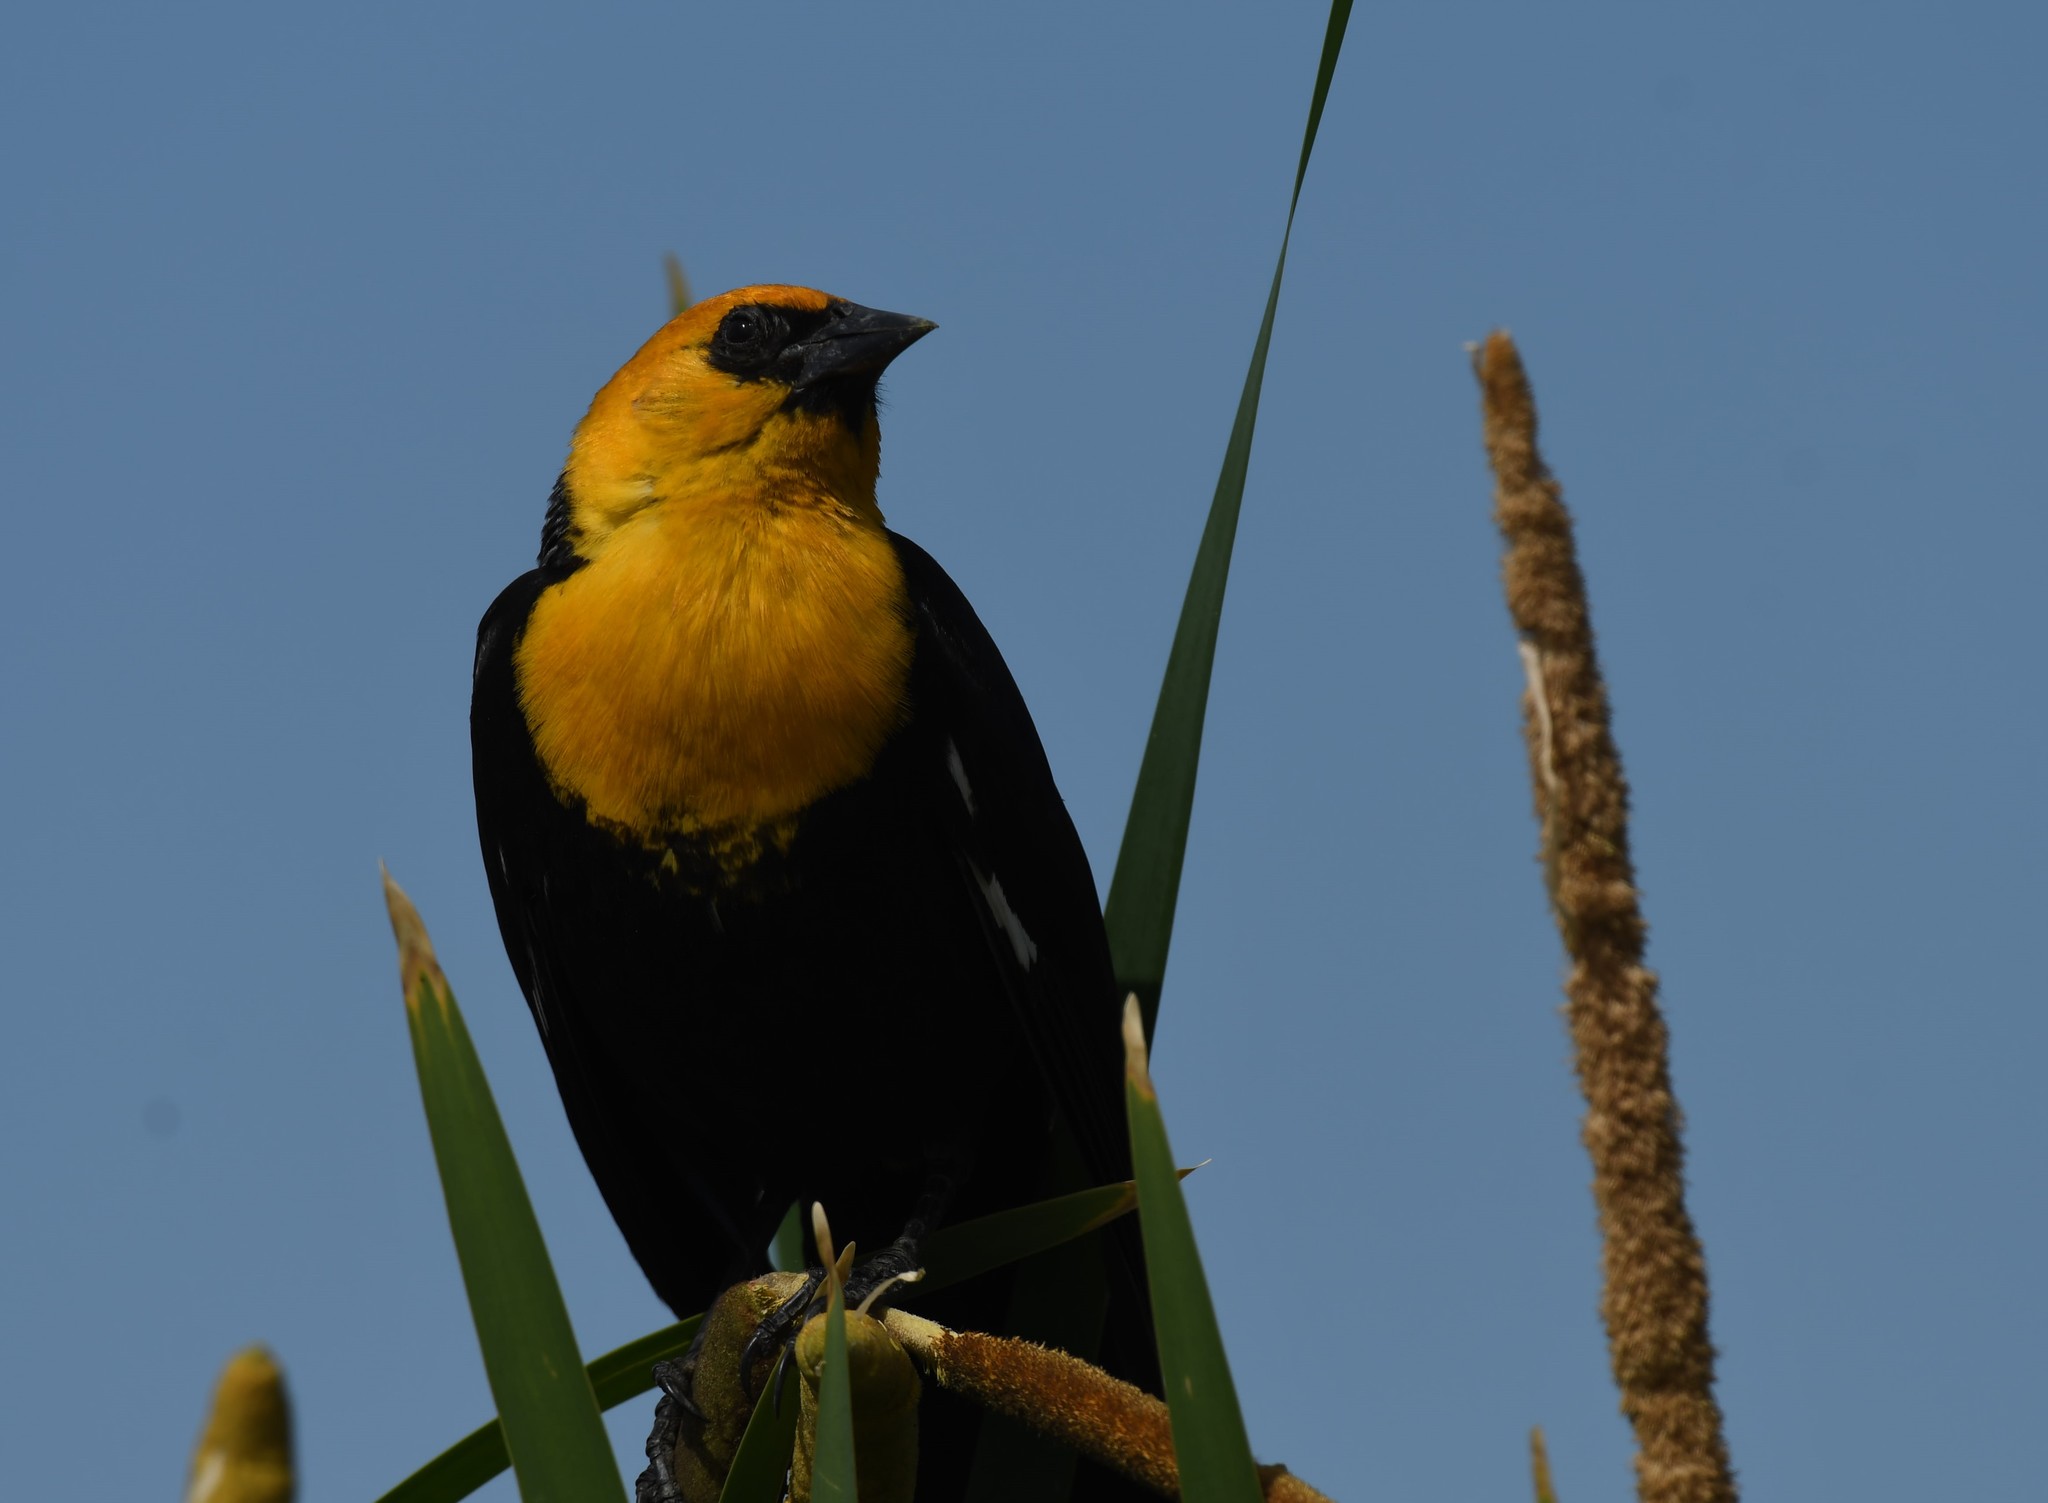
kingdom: Animalia
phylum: Chordata
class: Aves
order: Passeriformes
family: Icteridae
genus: Xanthocephalus
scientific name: Xanthocephalus xanthocephalus
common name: Yellow-headed blackbird
